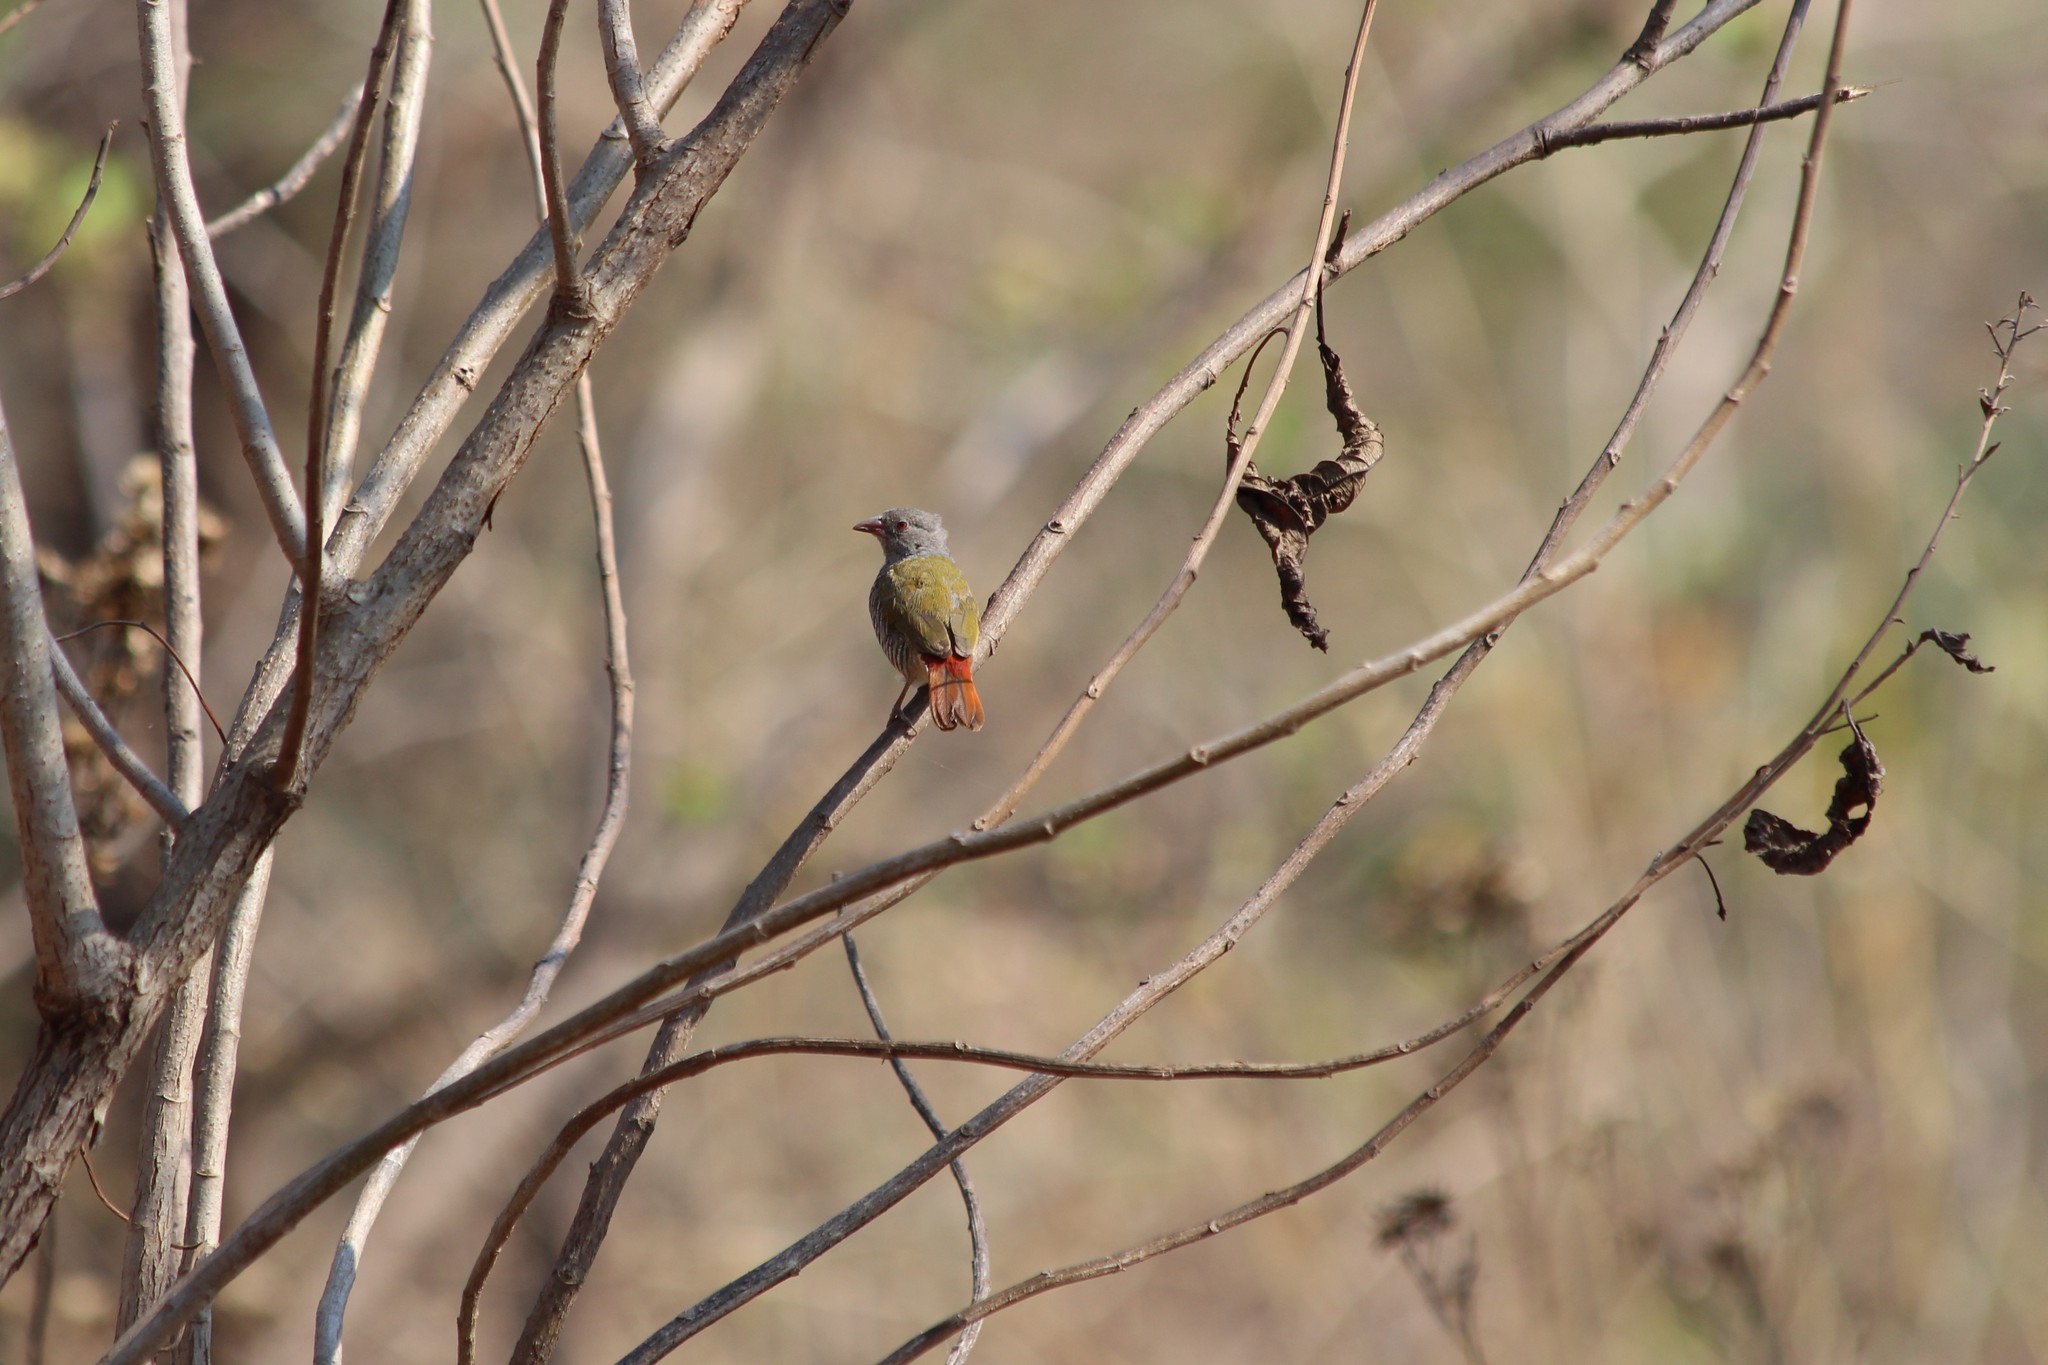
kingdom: Animalia
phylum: Chordata
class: Aves
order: Passeriformes
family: Estrildidae
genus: Pytilia
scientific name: Pytilia melba
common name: Green-winged pytilia
